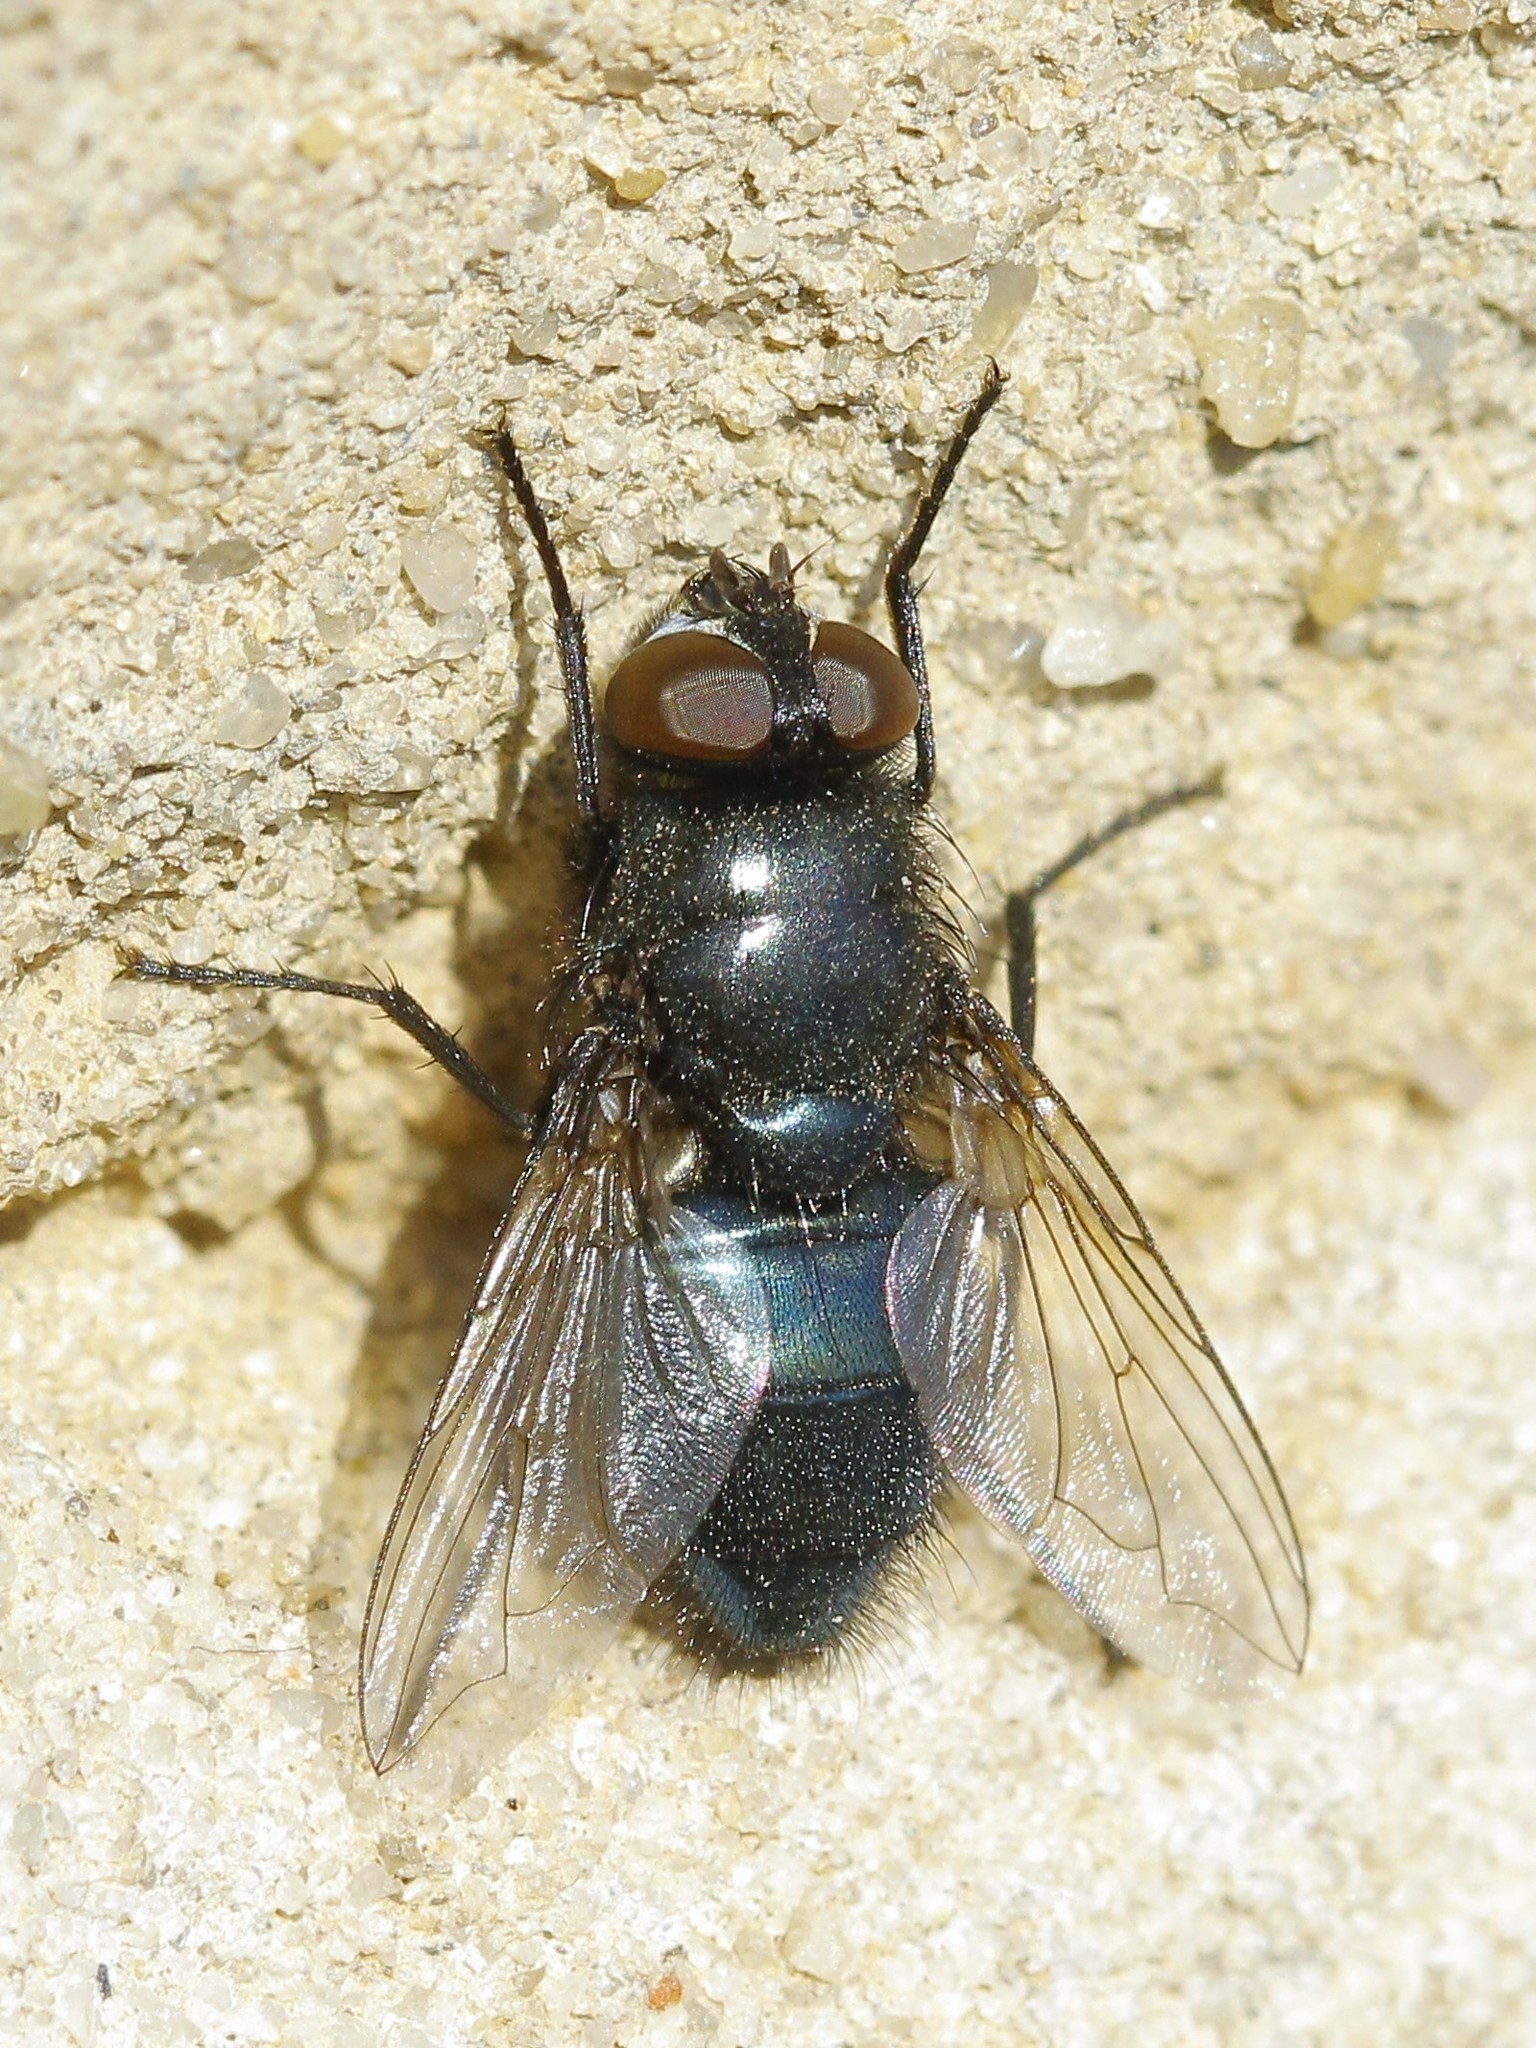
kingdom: Animalia
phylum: Arthropoda
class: Insecta
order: Diptera
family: Calliphoridae
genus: Protophormia
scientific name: Protophormia terraenovae
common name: Blackbottle
